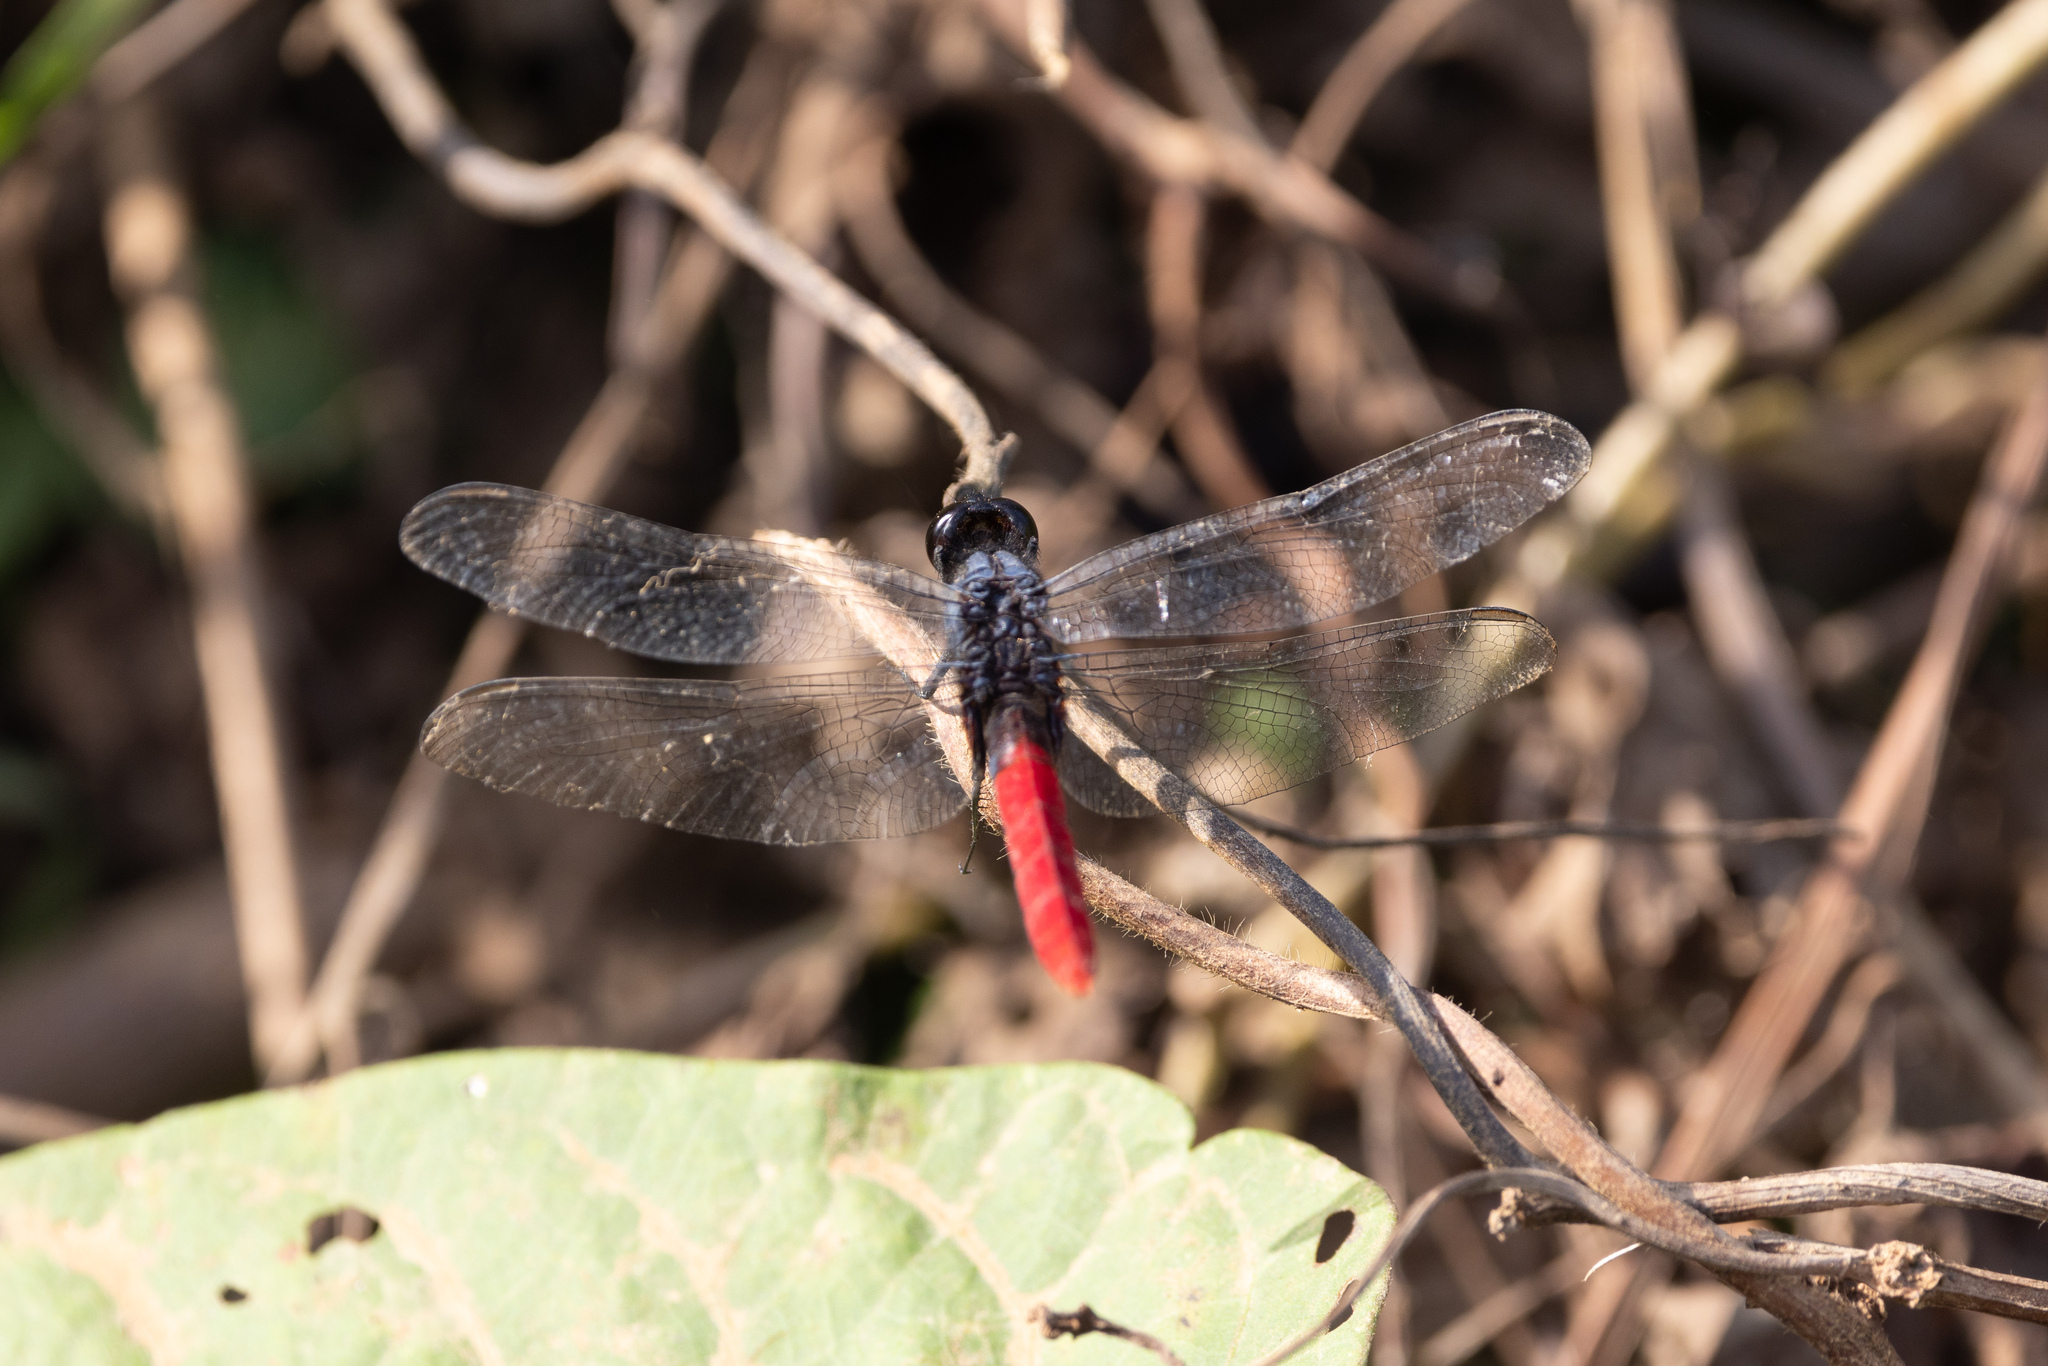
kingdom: Animalia
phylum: Arthropoda
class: Insecta
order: Odonata
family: Libellulidae
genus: Erythemis
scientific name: Erythemis peruviana
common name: Flame-tailed pondhawk
